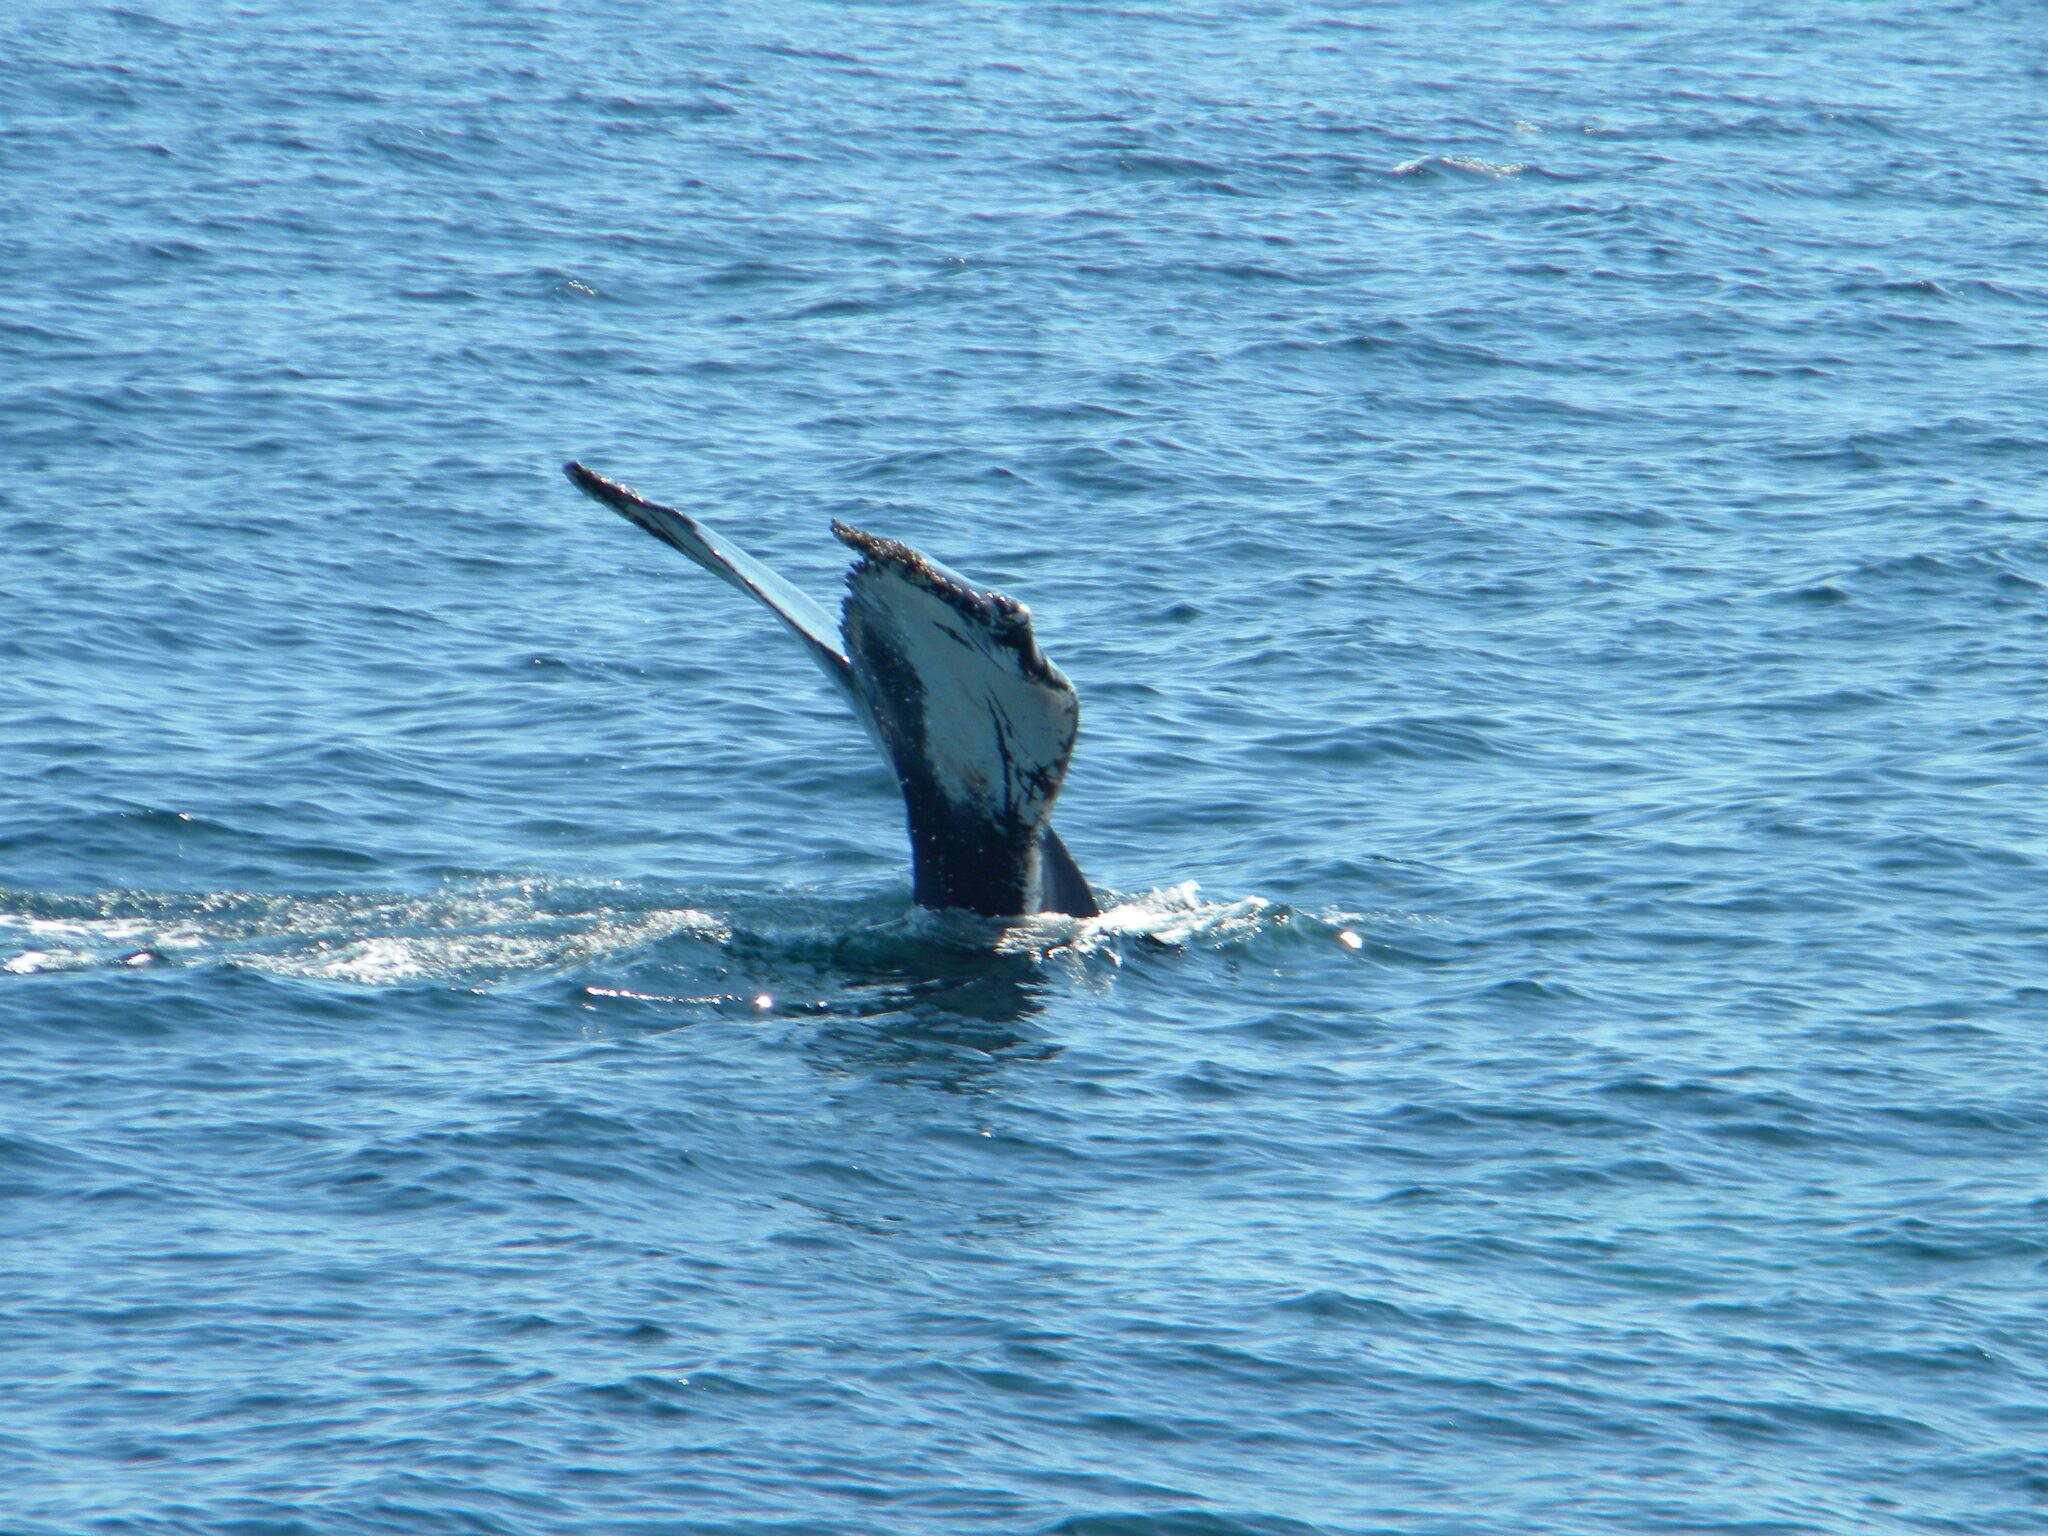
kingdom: Animalia
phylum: Chordata
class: Mammalia
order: Cetacea
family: Balaenopteridae
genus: Megaptera
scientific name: Megaptera novaeangliae
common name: Humpback whale
